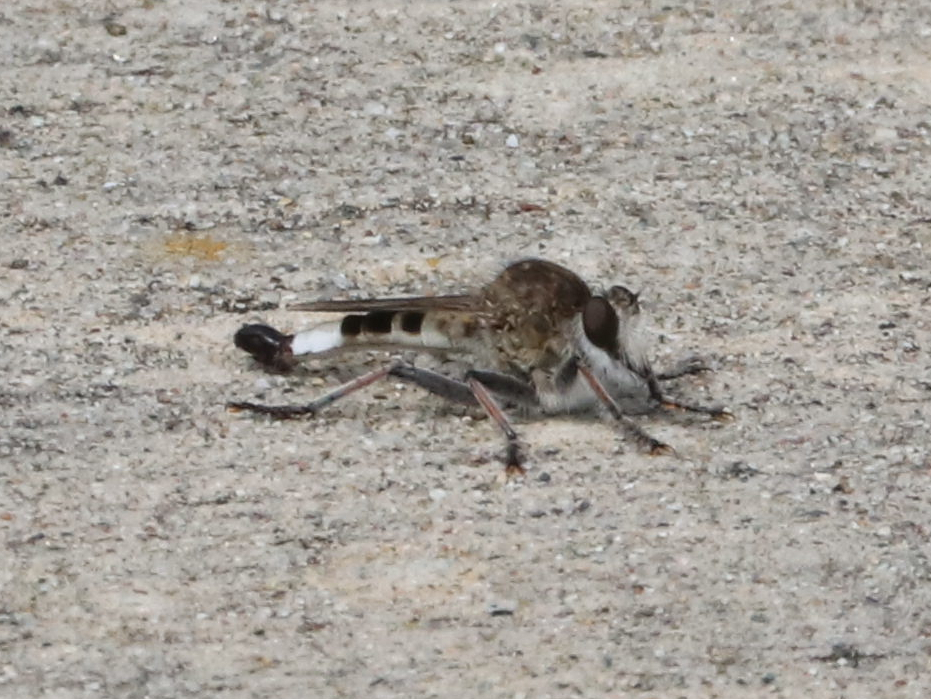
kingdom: Animalia
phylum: Arthropoda
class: Insecta
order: Diptera
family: Asilidae
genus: Efferia
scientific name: Efferia albibarbis
